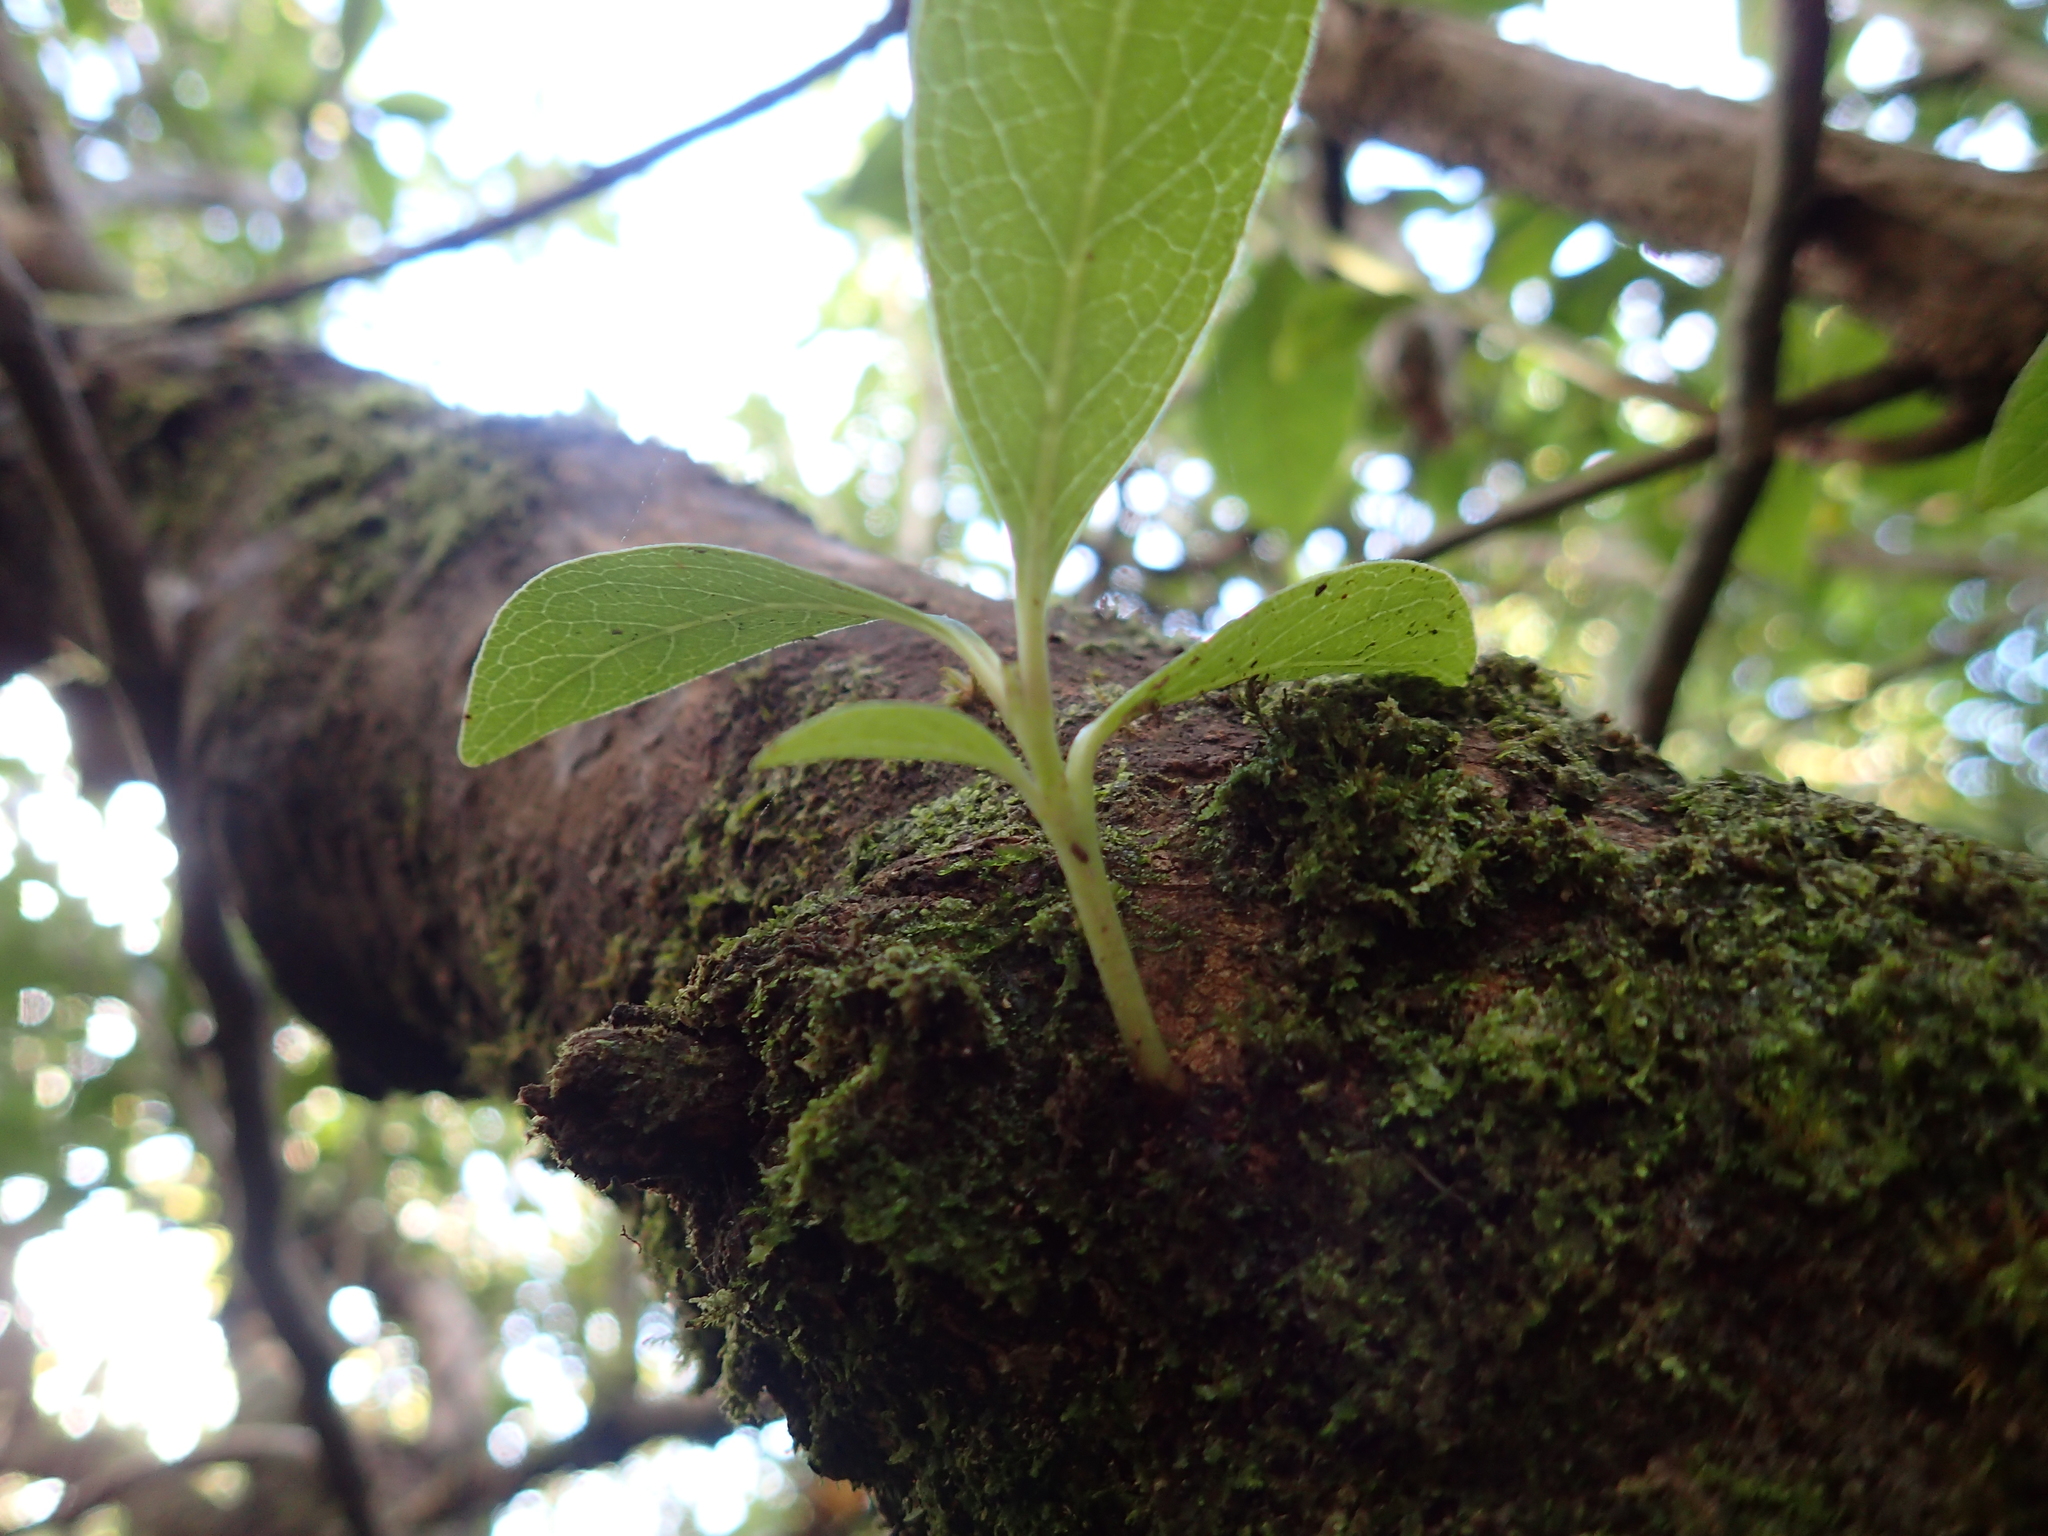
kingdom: Plantae
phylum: Tracheophyta
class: Magnoliopsida
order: Gentianales
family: Rubiaceae
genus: Coprosma
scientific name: Coprosma robusta
